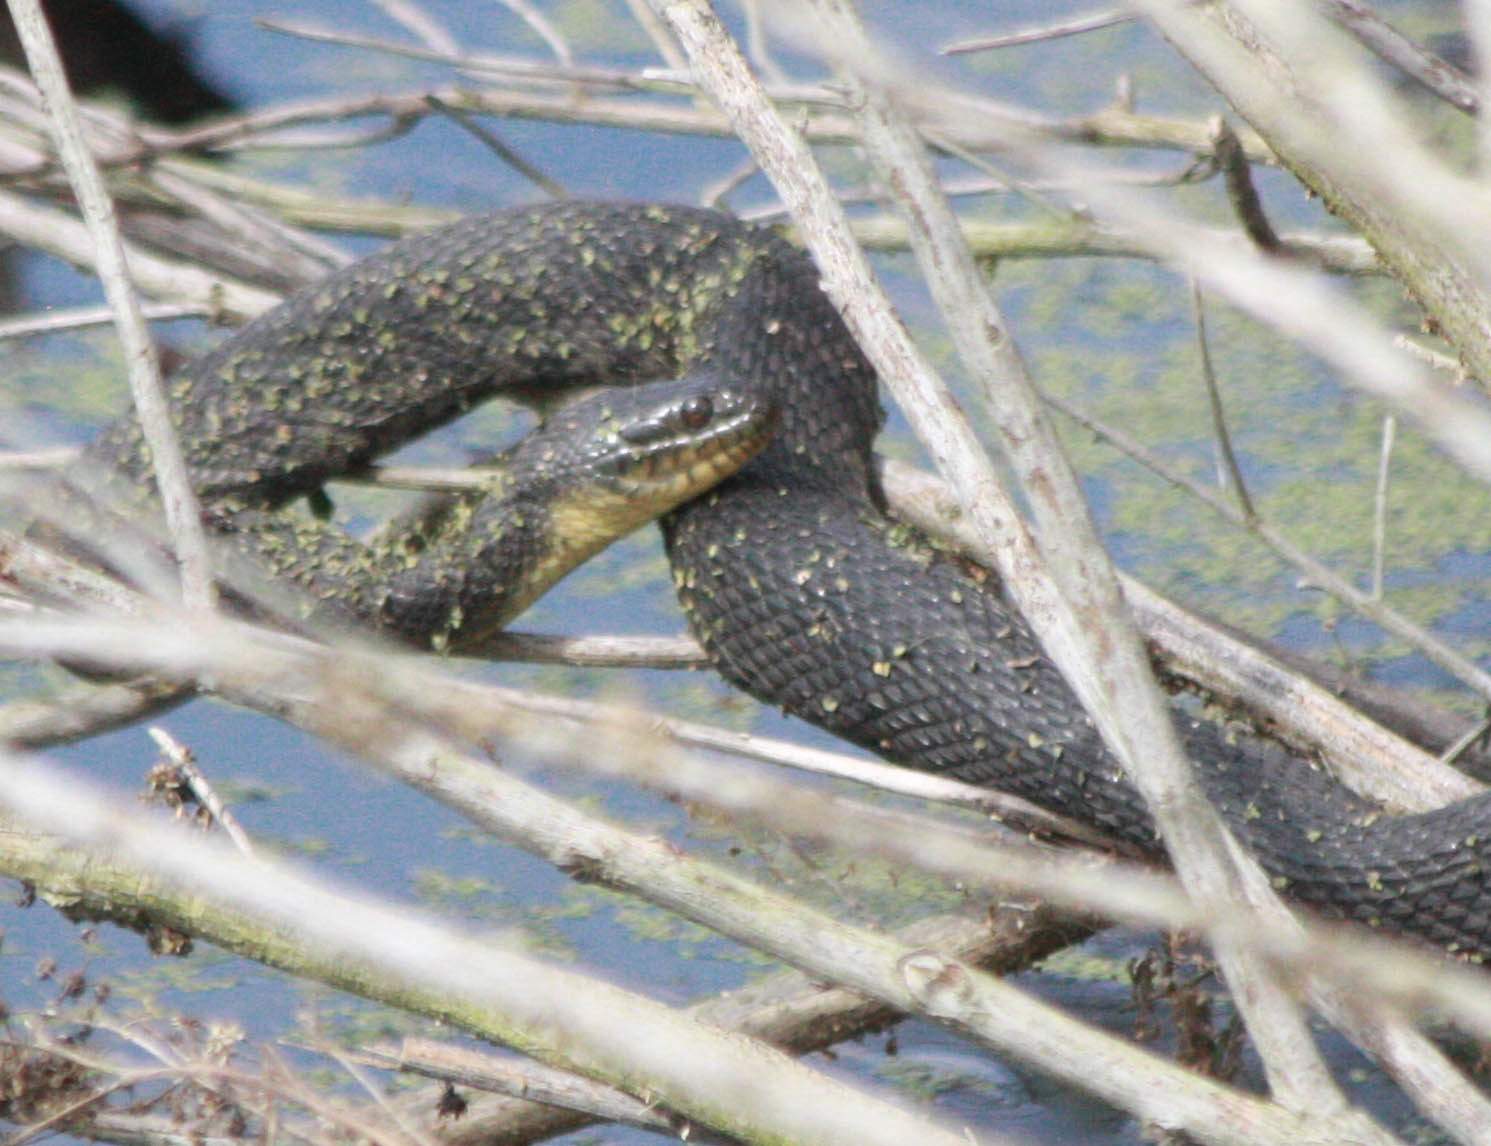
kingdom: Animalia
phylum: Chordata
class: Squamata
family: Colubridae
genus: Nerodia
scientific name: Nerodia cyclopion
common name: Mississippi green water snake
